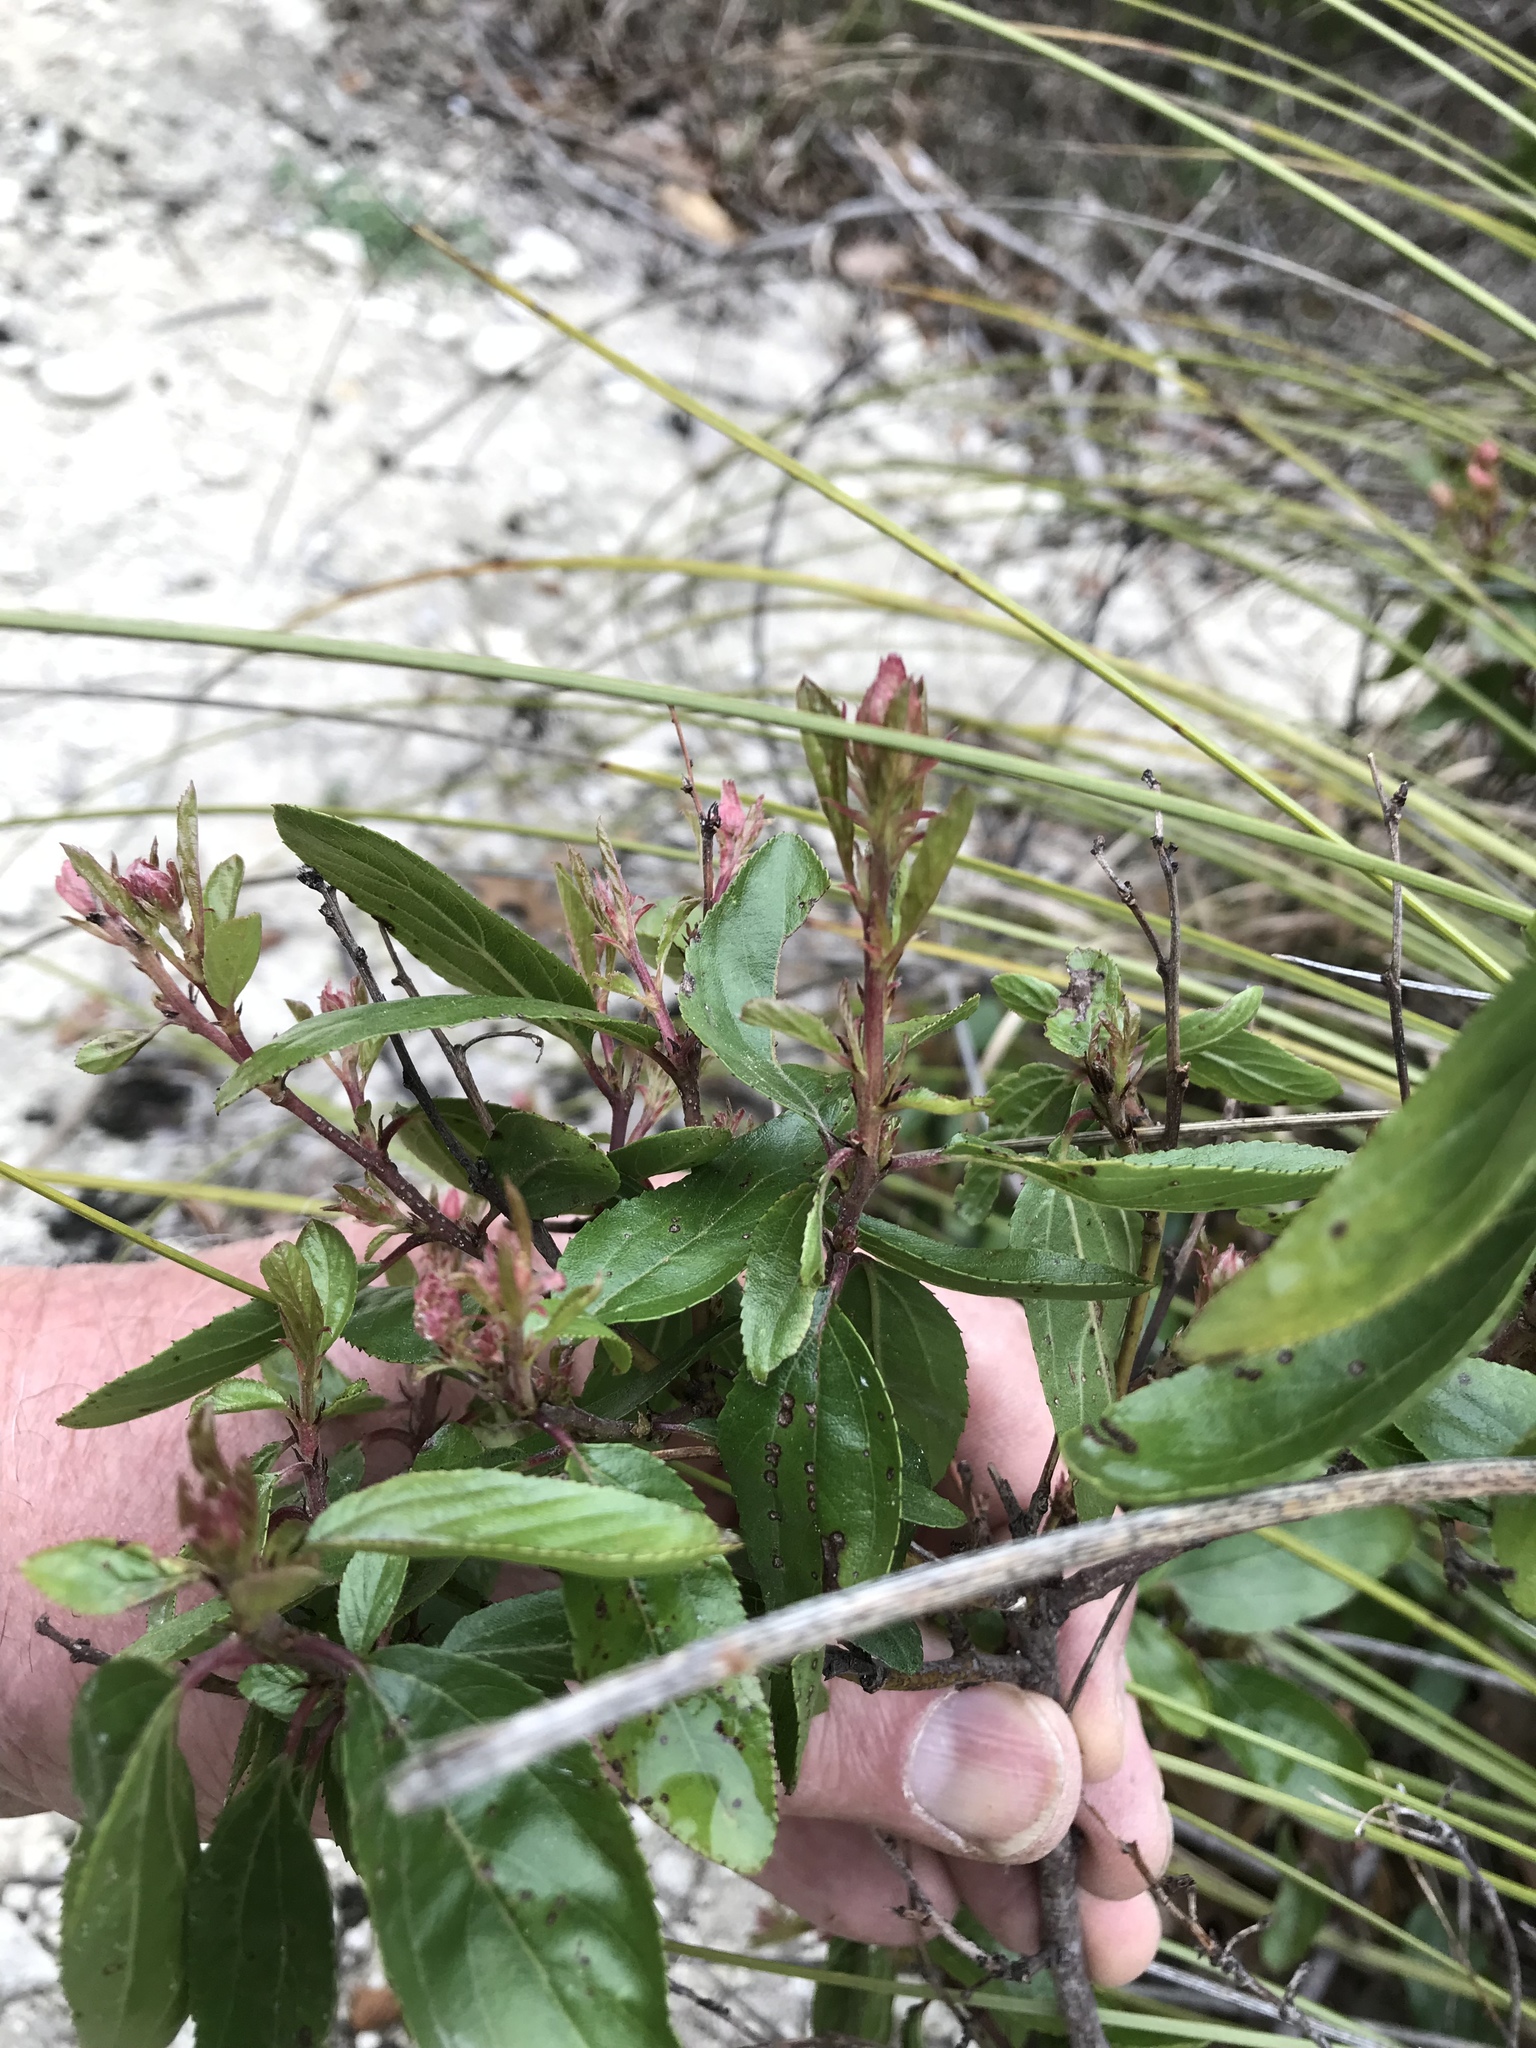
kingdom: Plantae
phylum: Tracheophyta
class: Magnoliopsida
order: Rosales
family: Rhamnaceae
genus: Ceanothus
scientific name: Ceanothus herbaceus
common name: Inland ceanothus
